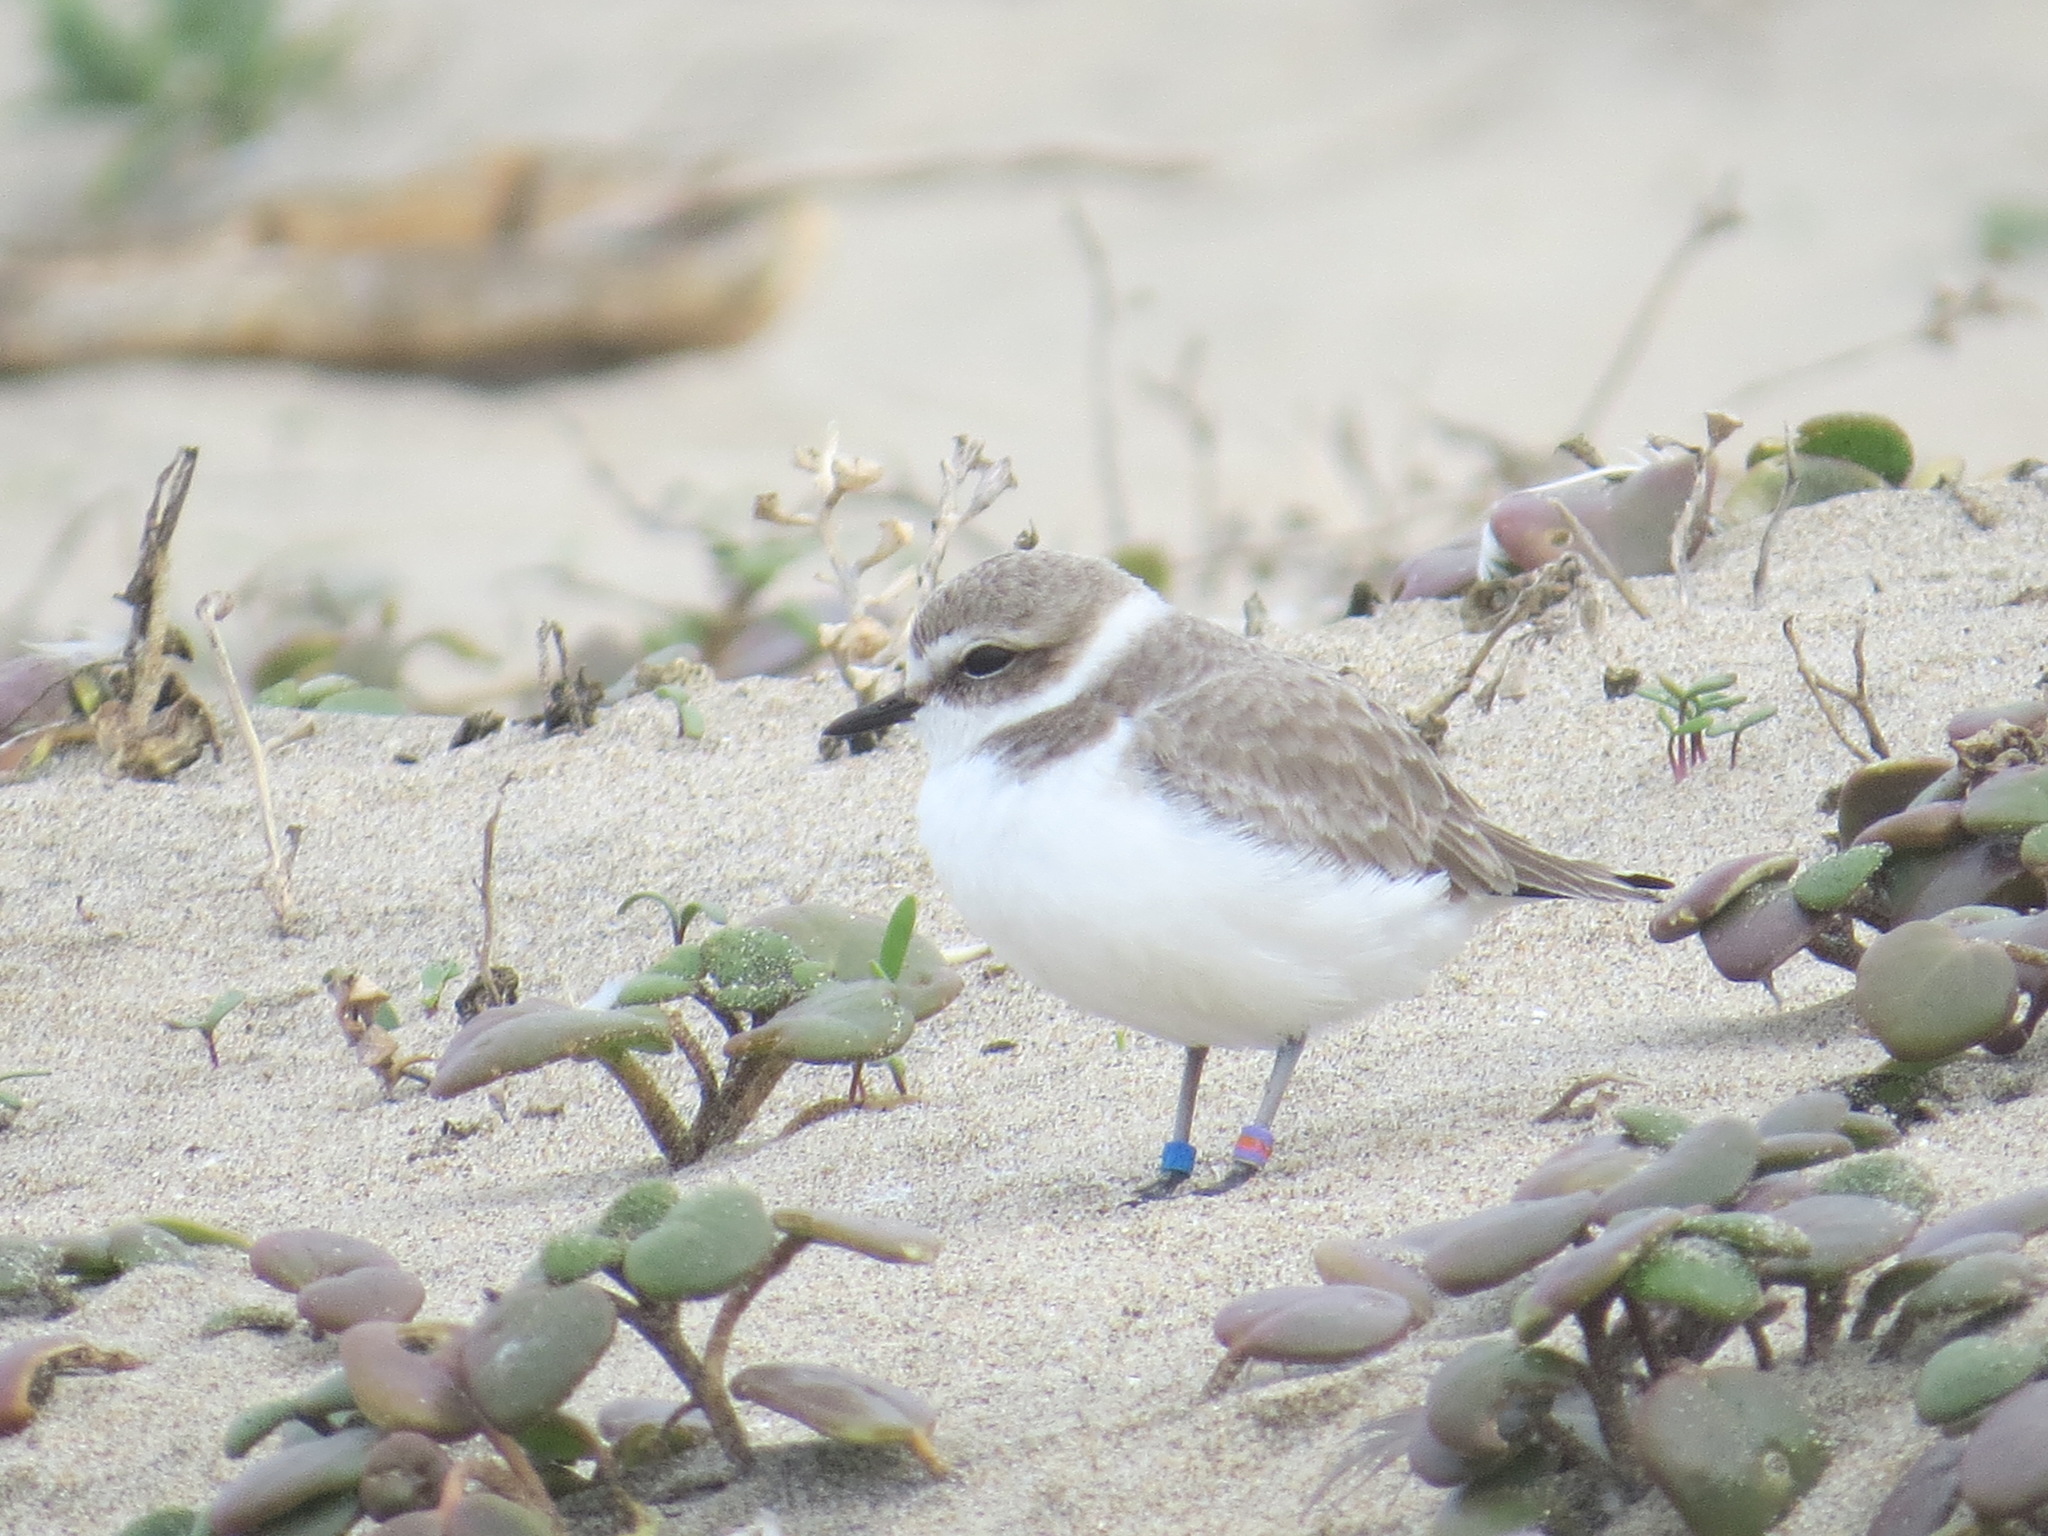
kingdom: Animalia
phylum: Chordata
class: Aves
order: Charadriiformes
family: Charadriidae
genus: Anarhynchus
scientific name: Anarhynchus
